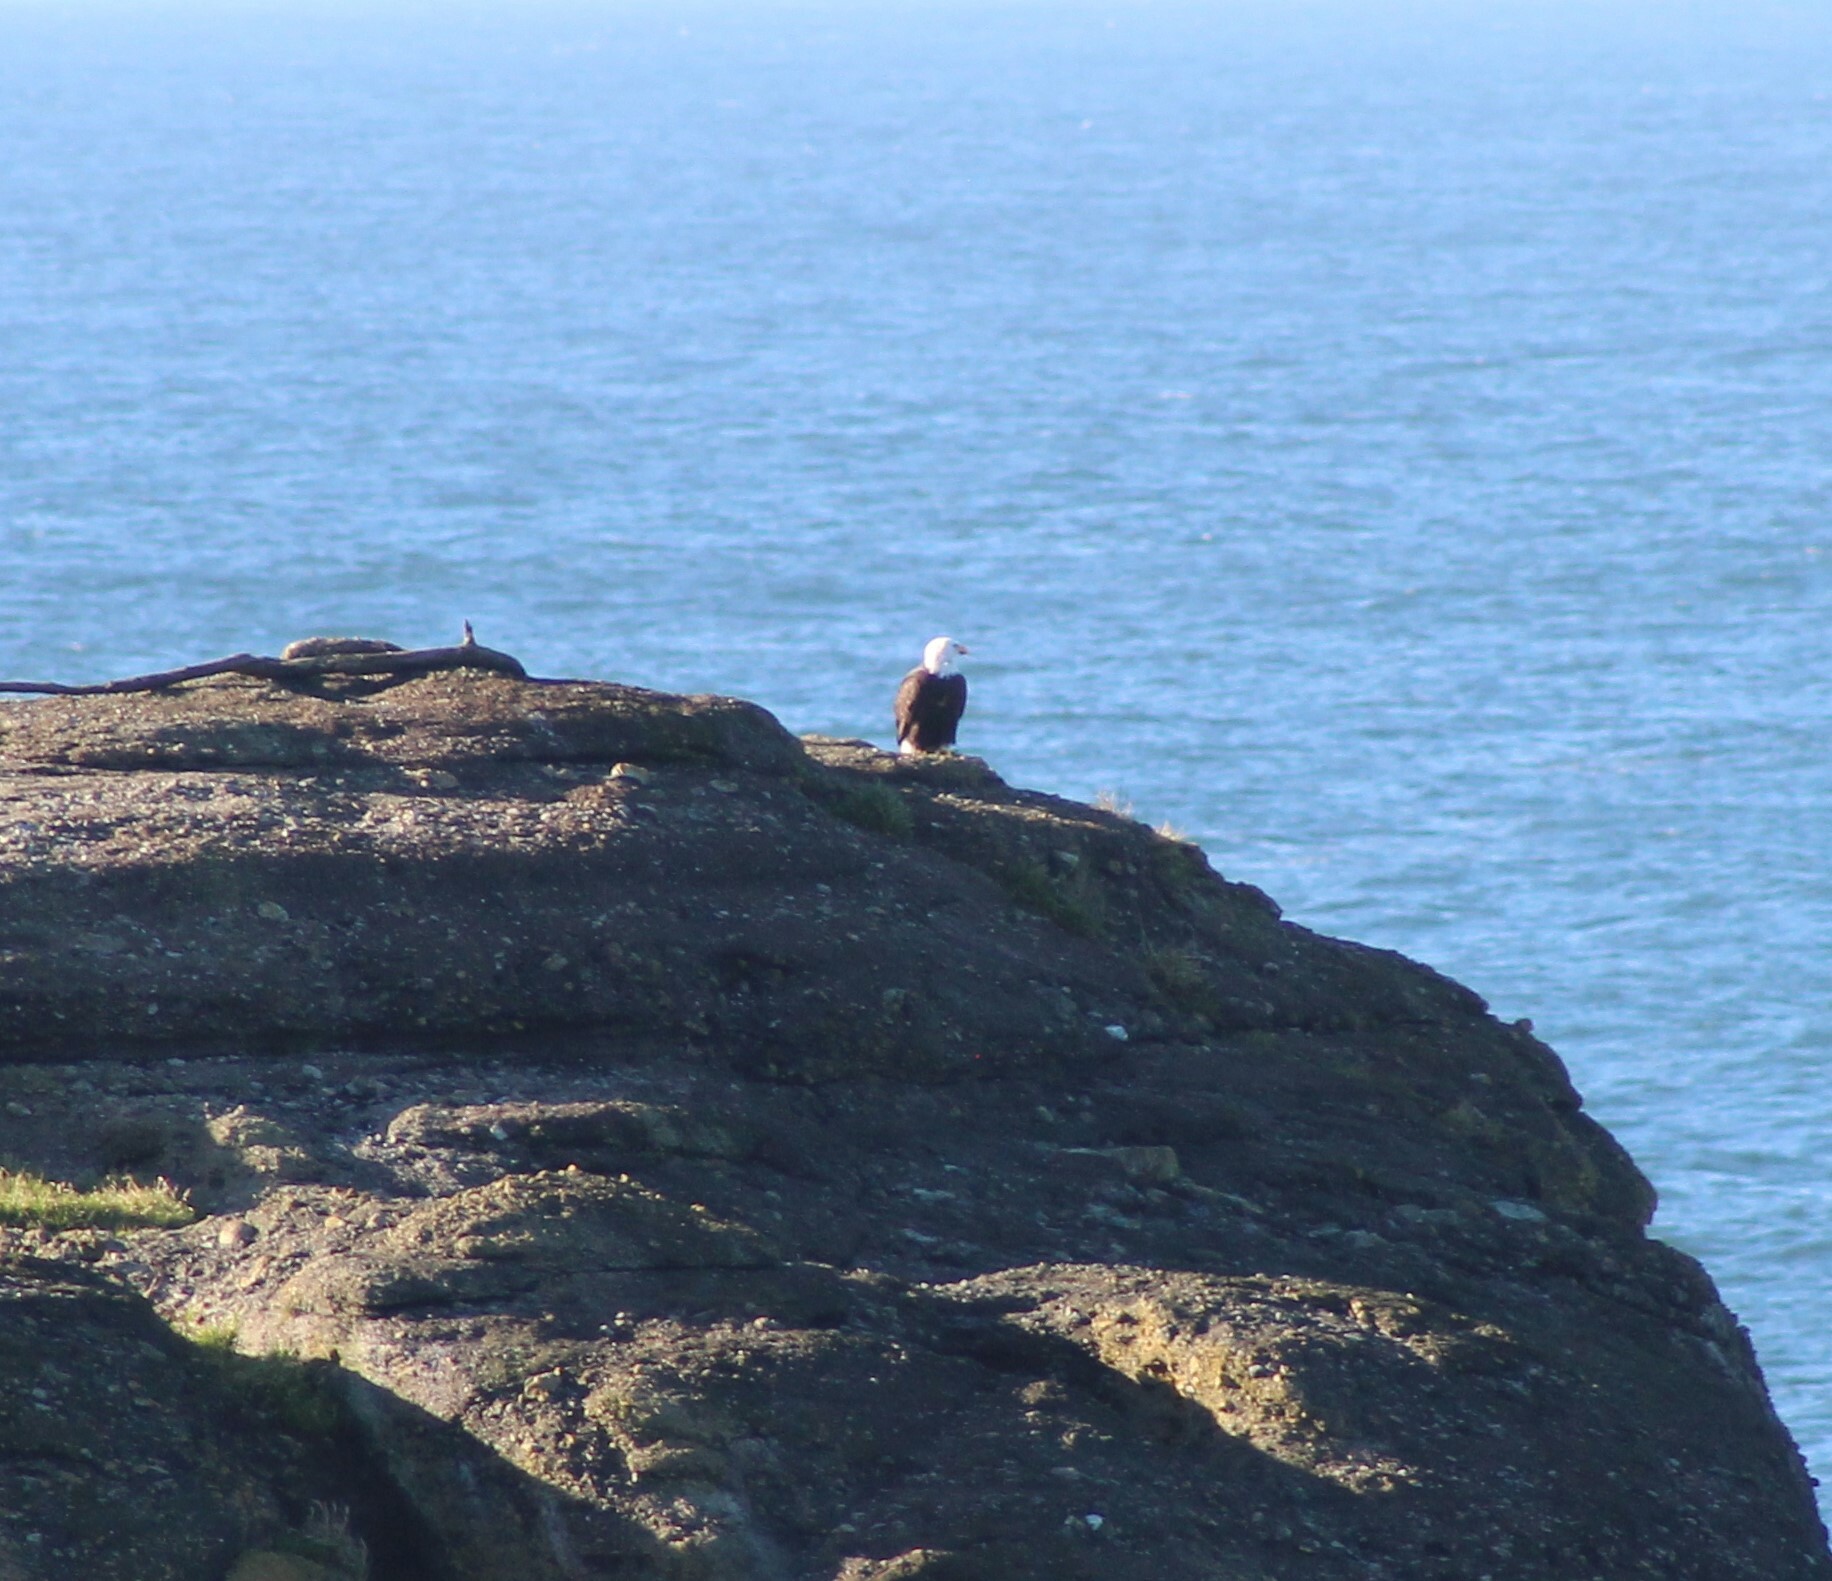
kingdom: Animalia
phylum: Chordata
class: Aves
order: Accipitriformes
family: Accipitridae
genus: Haliaeetus
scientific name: Haliaeetus leucocephalus
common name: Bald eagle
